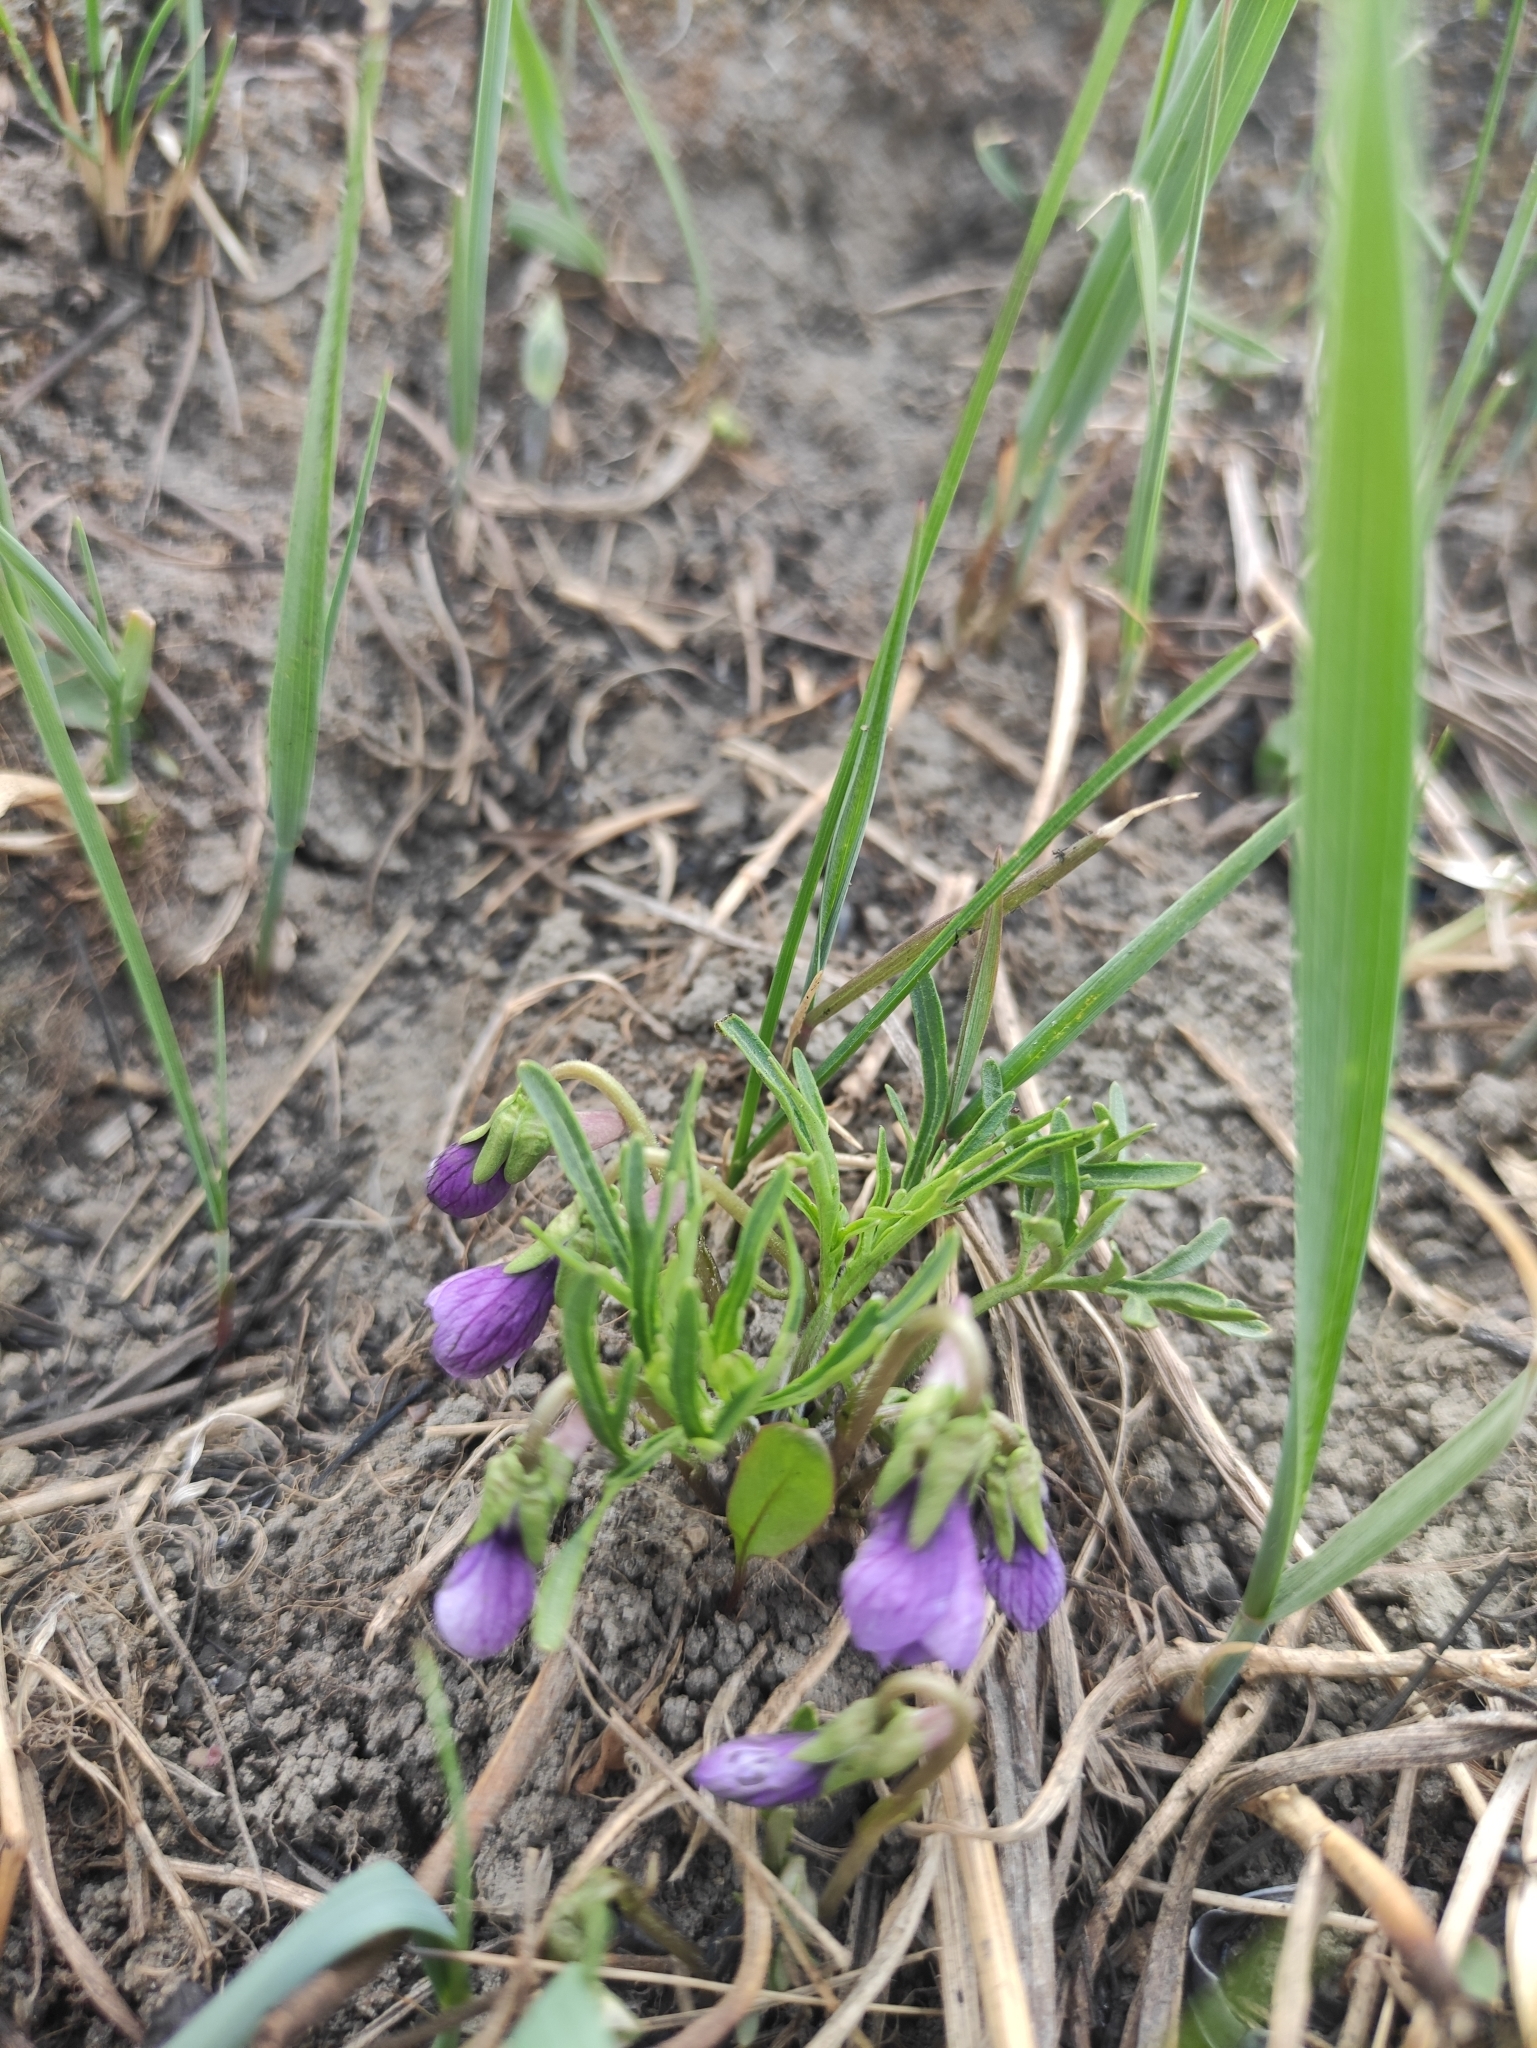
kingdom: Plantae
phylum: Tracheophyta
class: Magnoliopsida
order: Malpighiales
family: Violaceae
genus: Viola
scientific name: Viola multifida
